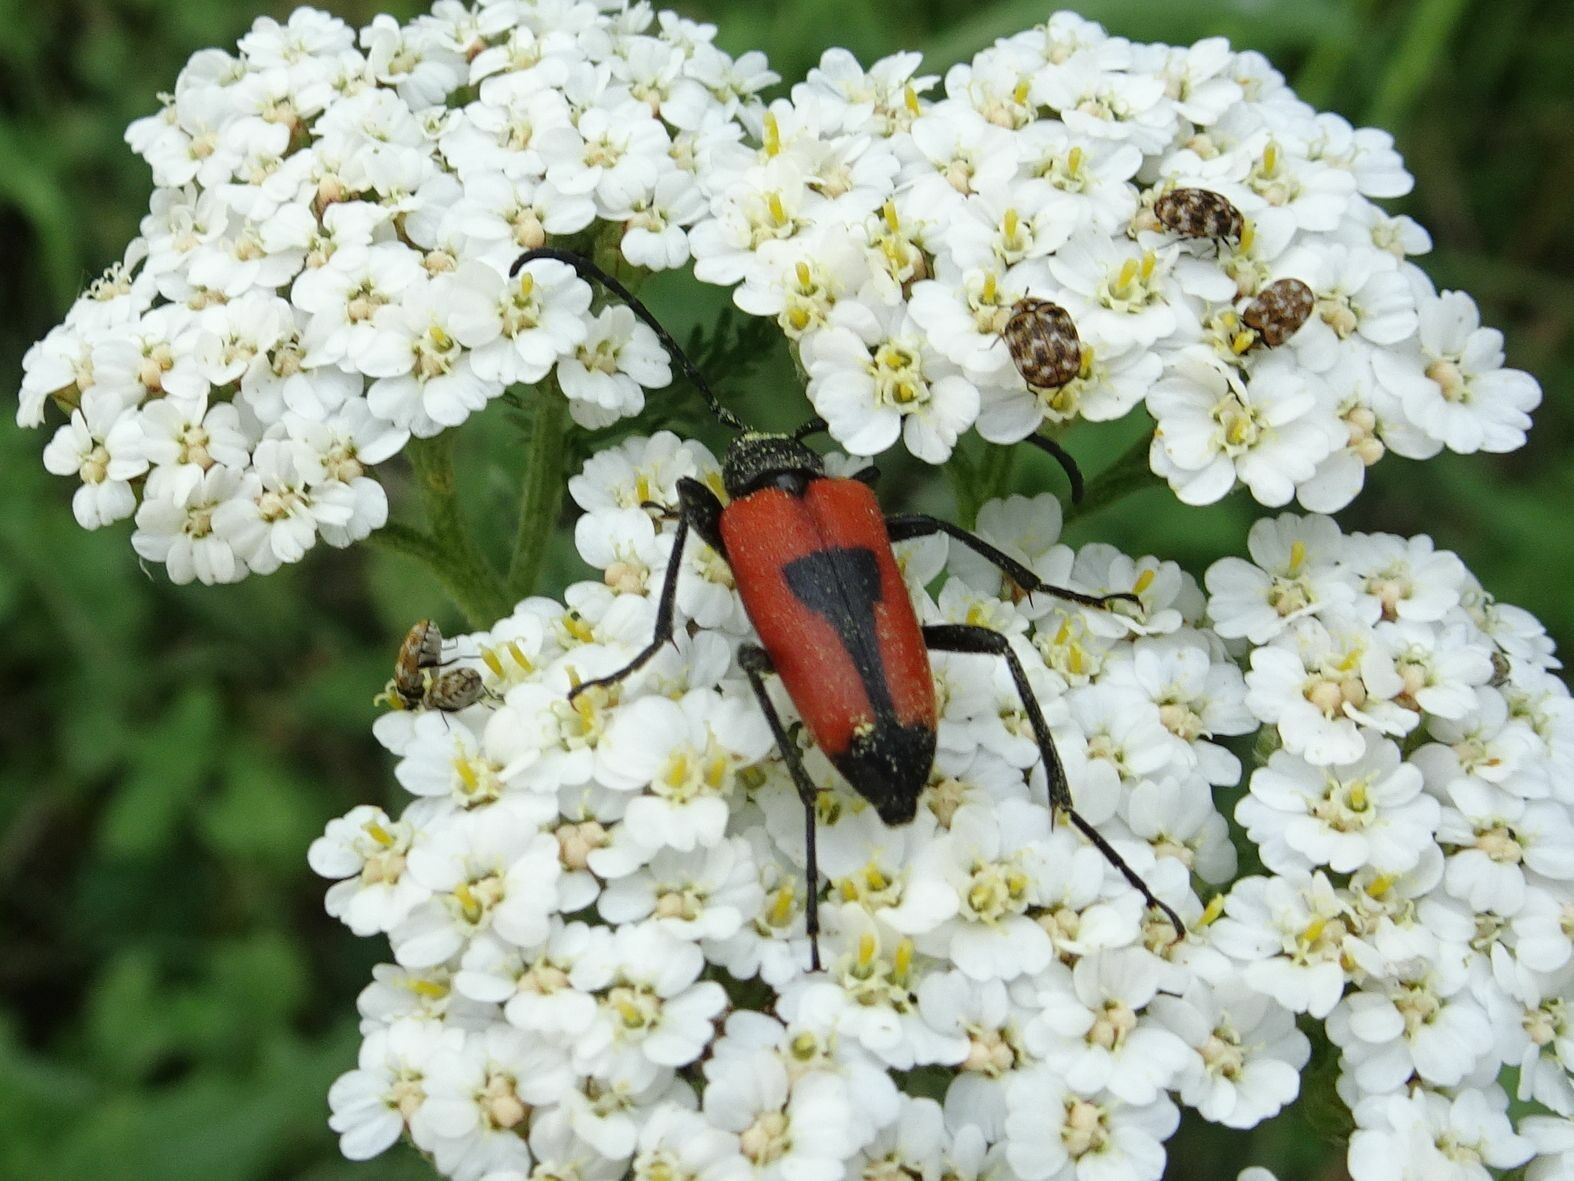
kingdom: Animalia
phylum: Arthropoda
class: Insecta
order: Coleoptera
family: Cerambycidae
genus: Stictoleptura
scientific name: Stictoleptura cordigera
